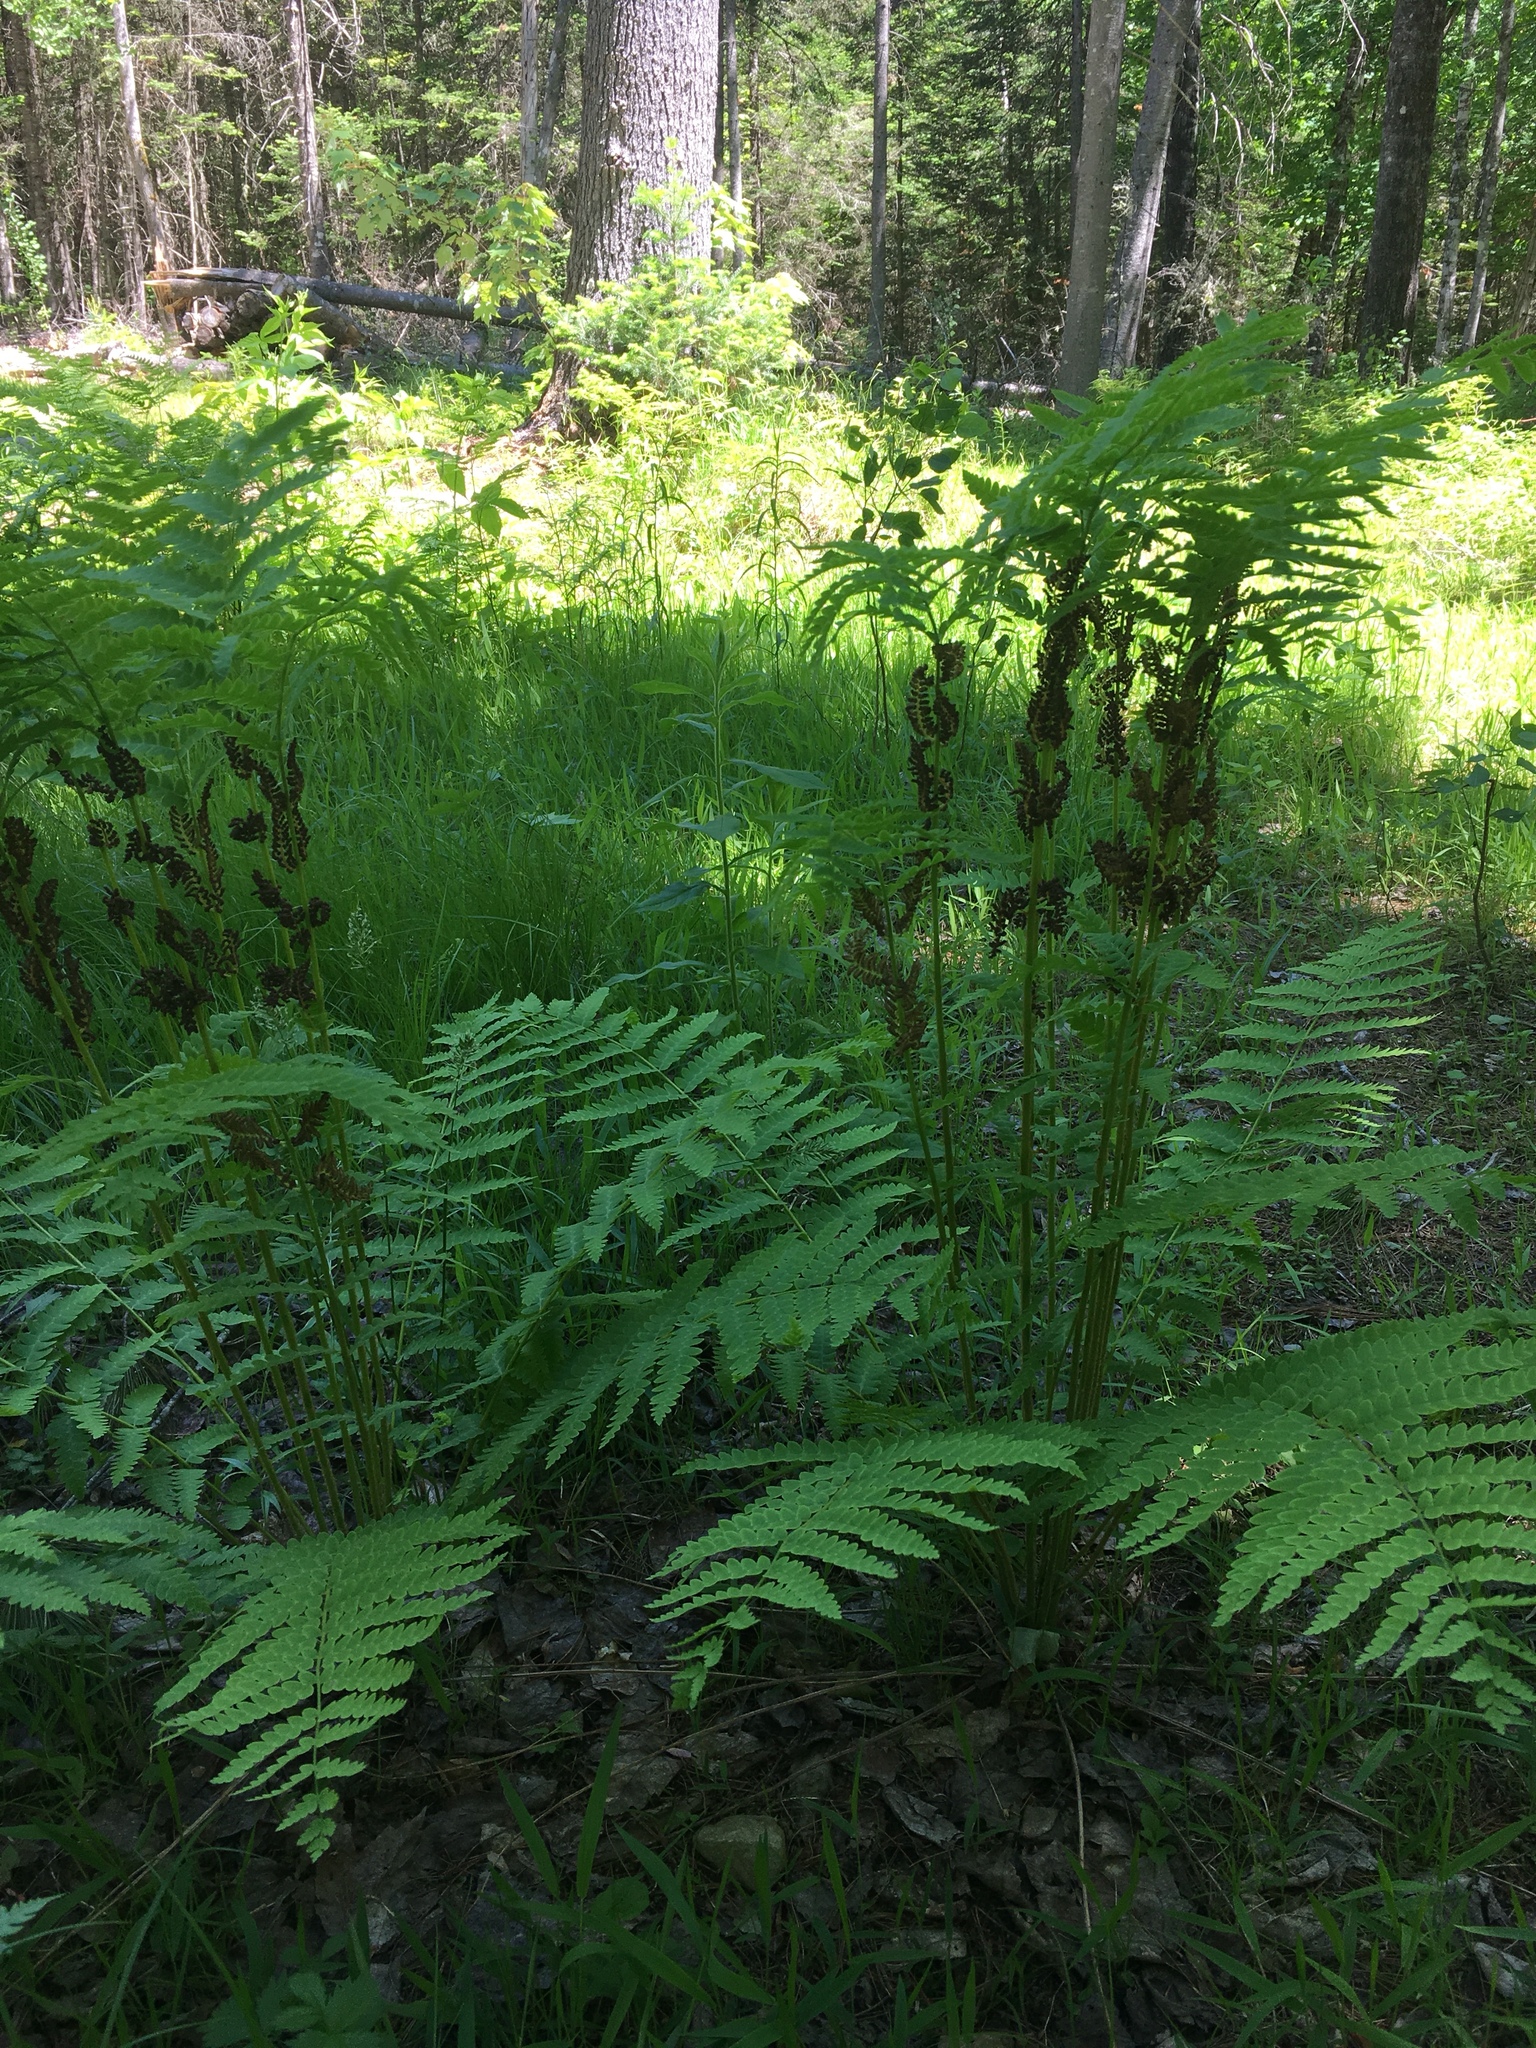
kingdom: Plantae
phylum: Tracheophyta
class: Polypodiopsida
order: Osmundales
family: Osmundaceae
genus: Claytosmunda
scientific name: Claytosmunda claytoniana
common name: Clayton's fern
